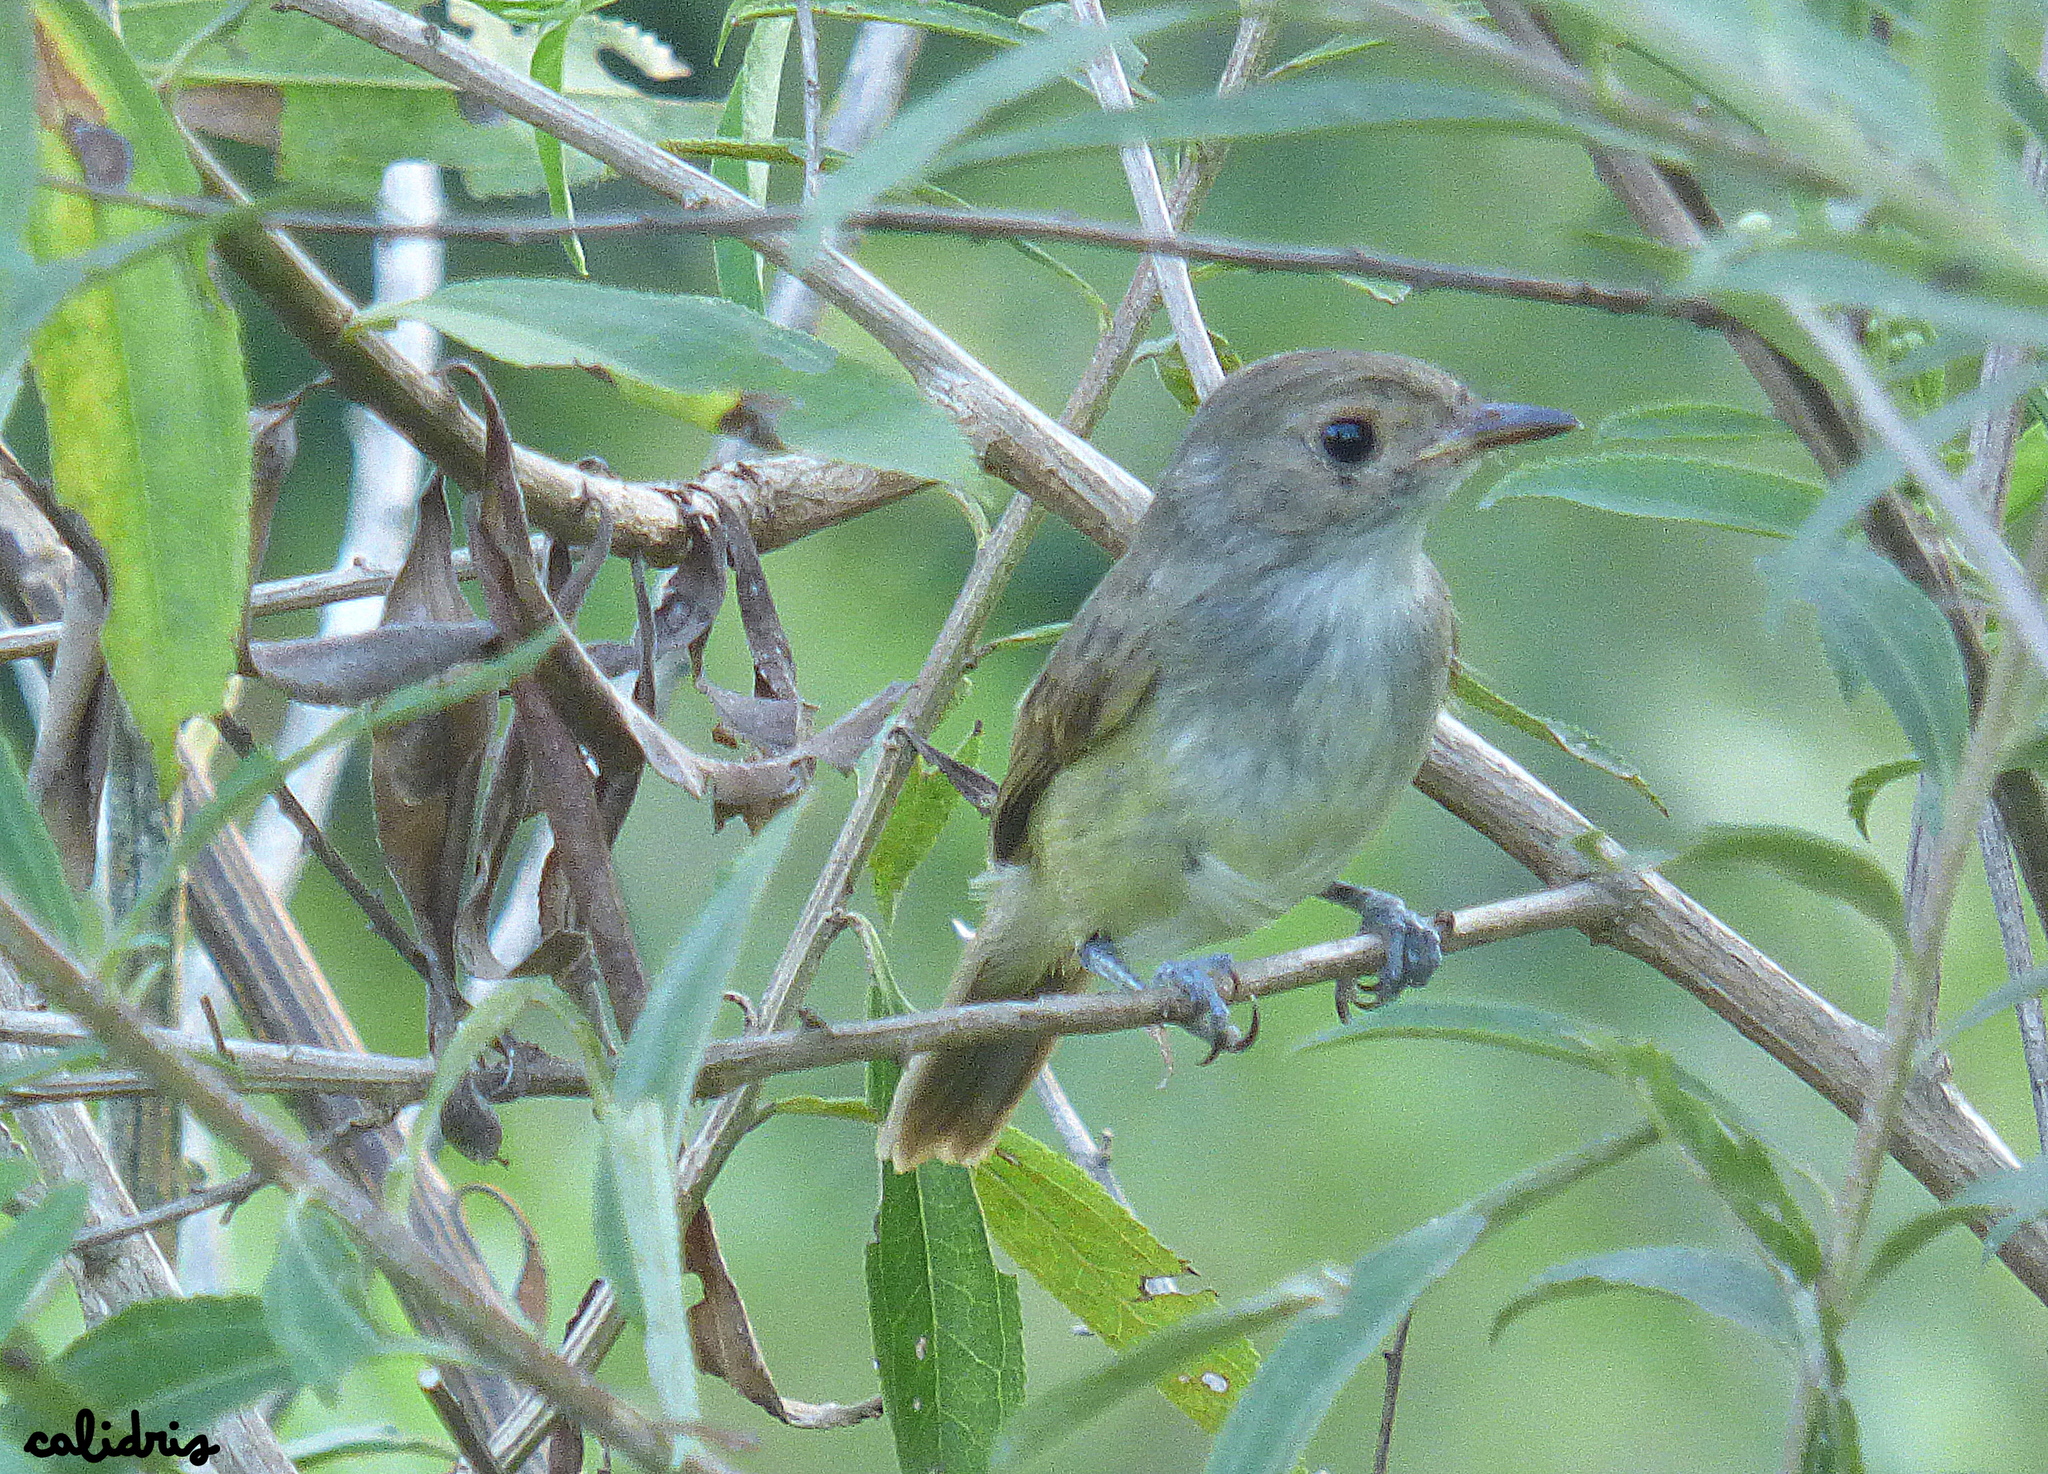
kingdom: Animalia
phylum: Chordata
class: Aves
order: Passeriformes
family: Tyrannidae
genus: Euscarthmus
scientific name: Euscarthmus meloryphus
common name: Tawny-crowned pygmy tyrant
